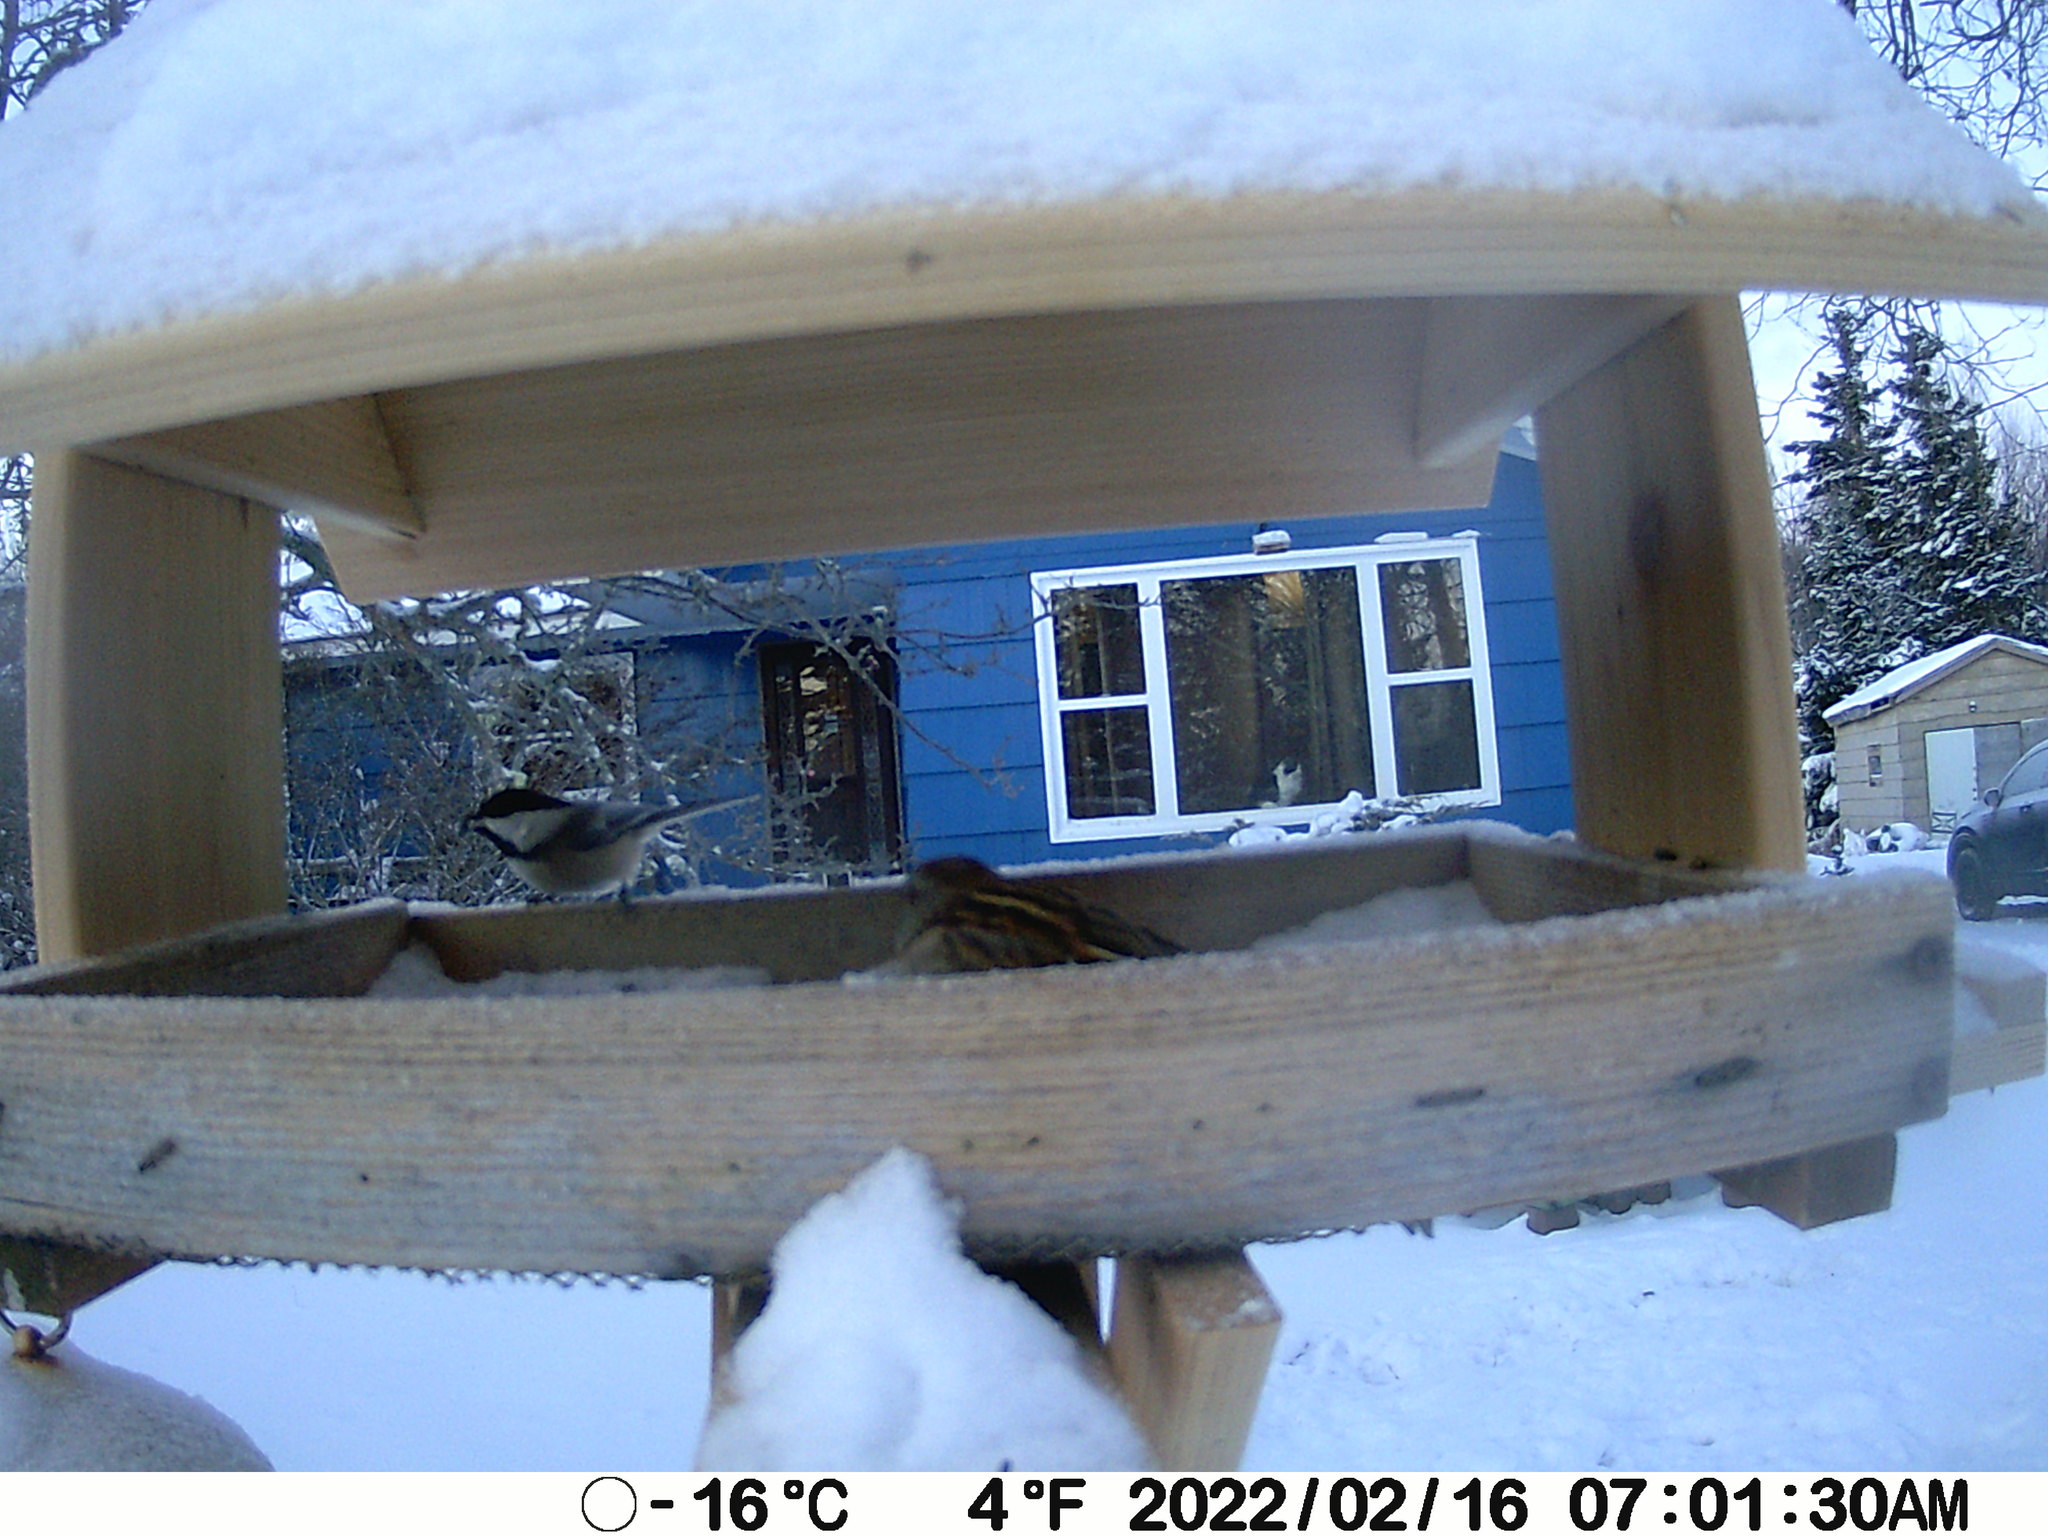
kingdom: Animalia
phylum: Chordata
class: Aves
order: Passeriformes
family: Paridae
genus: Poecile
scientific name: Poecile atricapillus
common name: Black-capped chickadee
